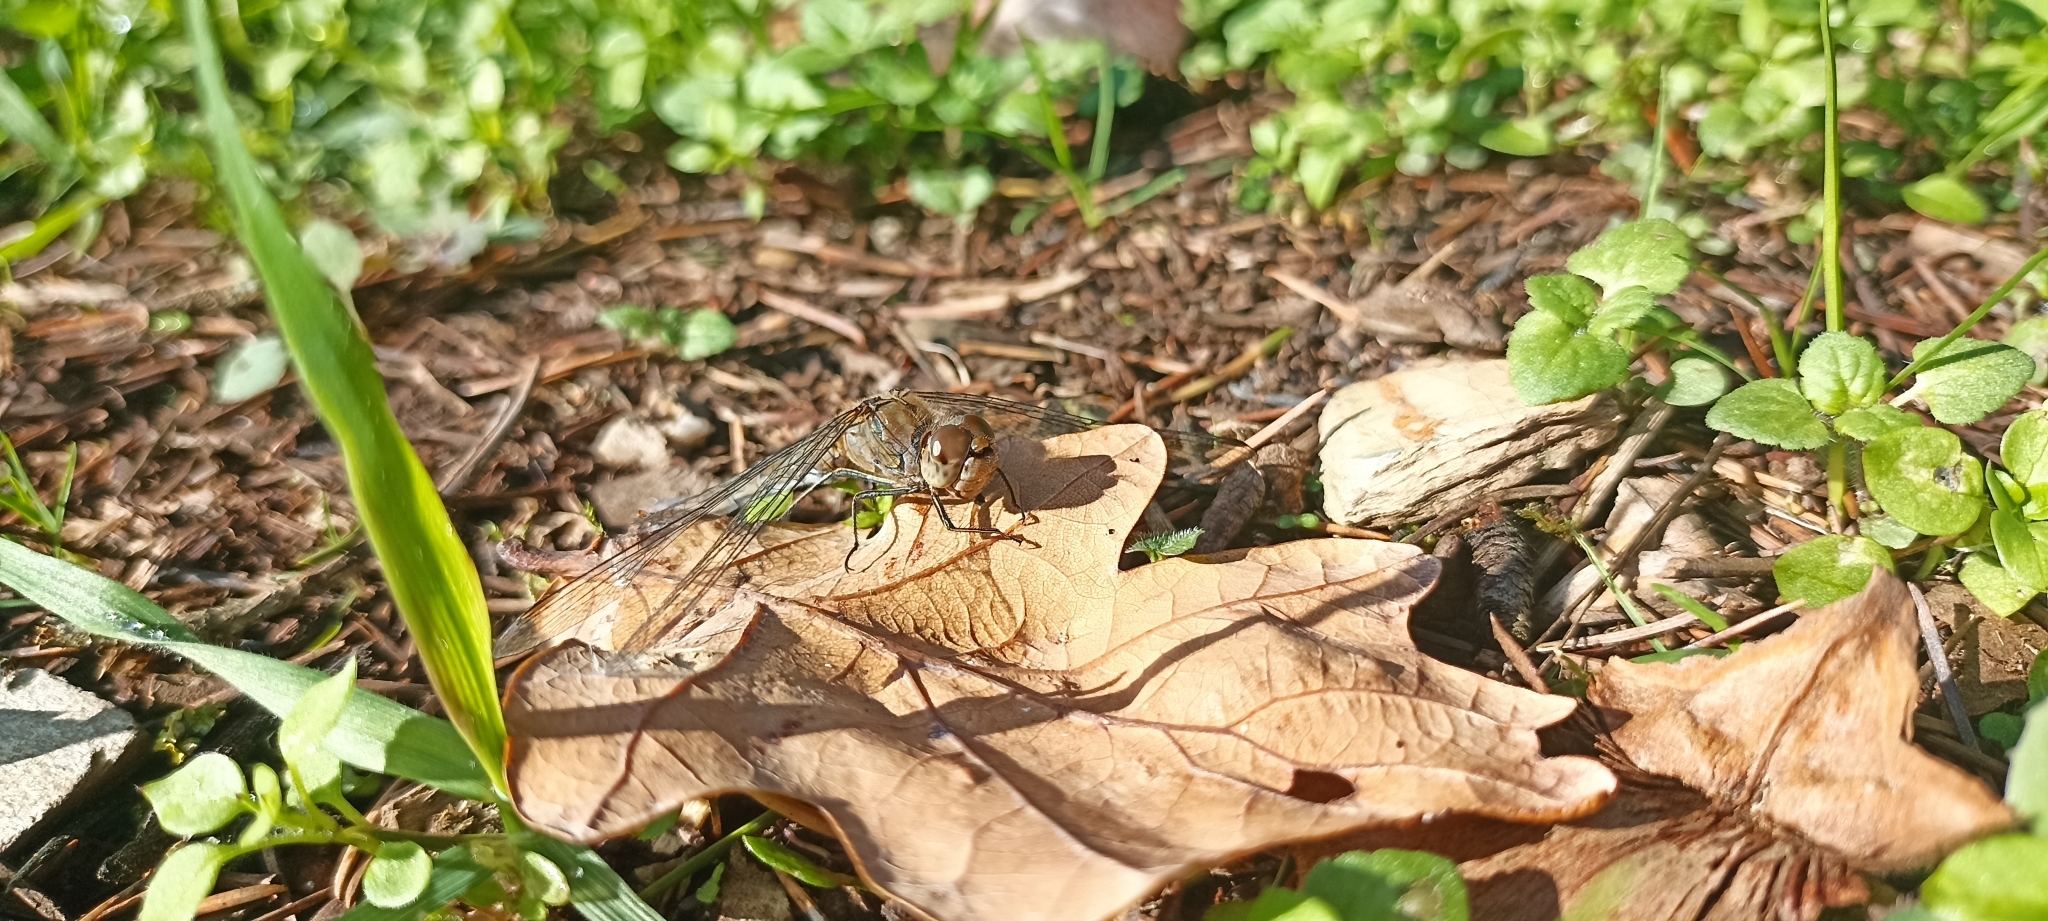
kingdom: Animalia
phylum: Arthropoda
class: Insecta
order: Odonata
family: Libellulidae
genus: Sympetrum
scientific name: Sympetrum striolatum
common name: Common darter
